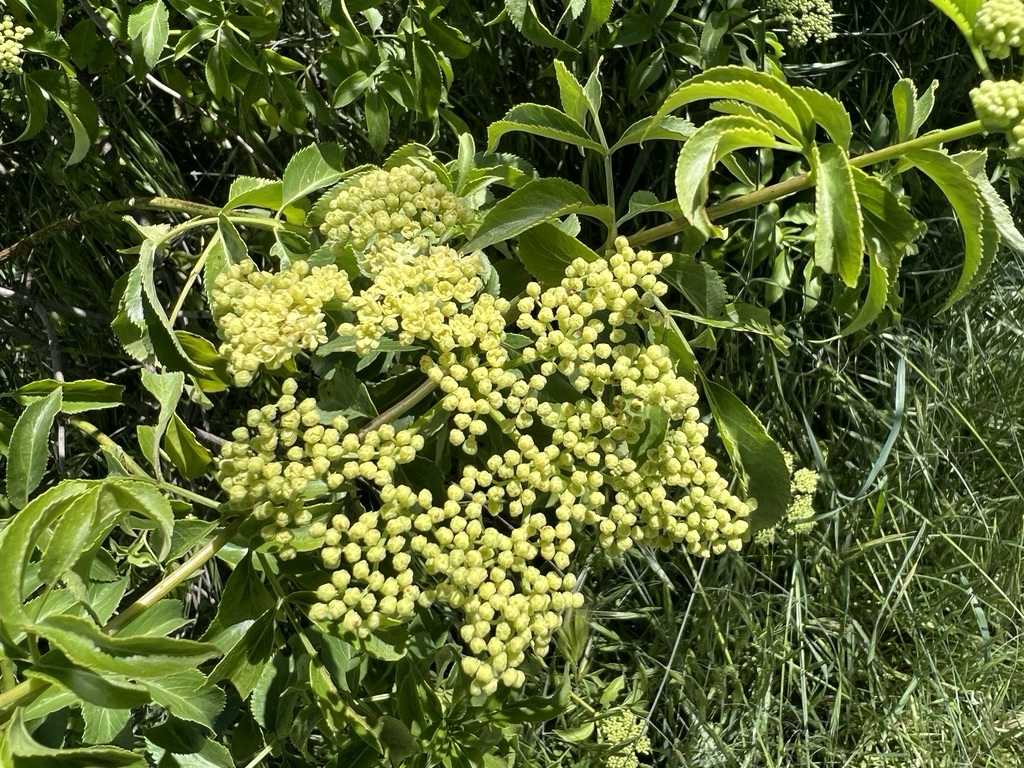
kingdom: Plantae
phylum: Tracheophyta
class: Magnoliopsida
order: Dipsacales
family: Viburnaceae
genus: Sambucus
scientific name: Sambucus cerulea
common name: Blue elder
